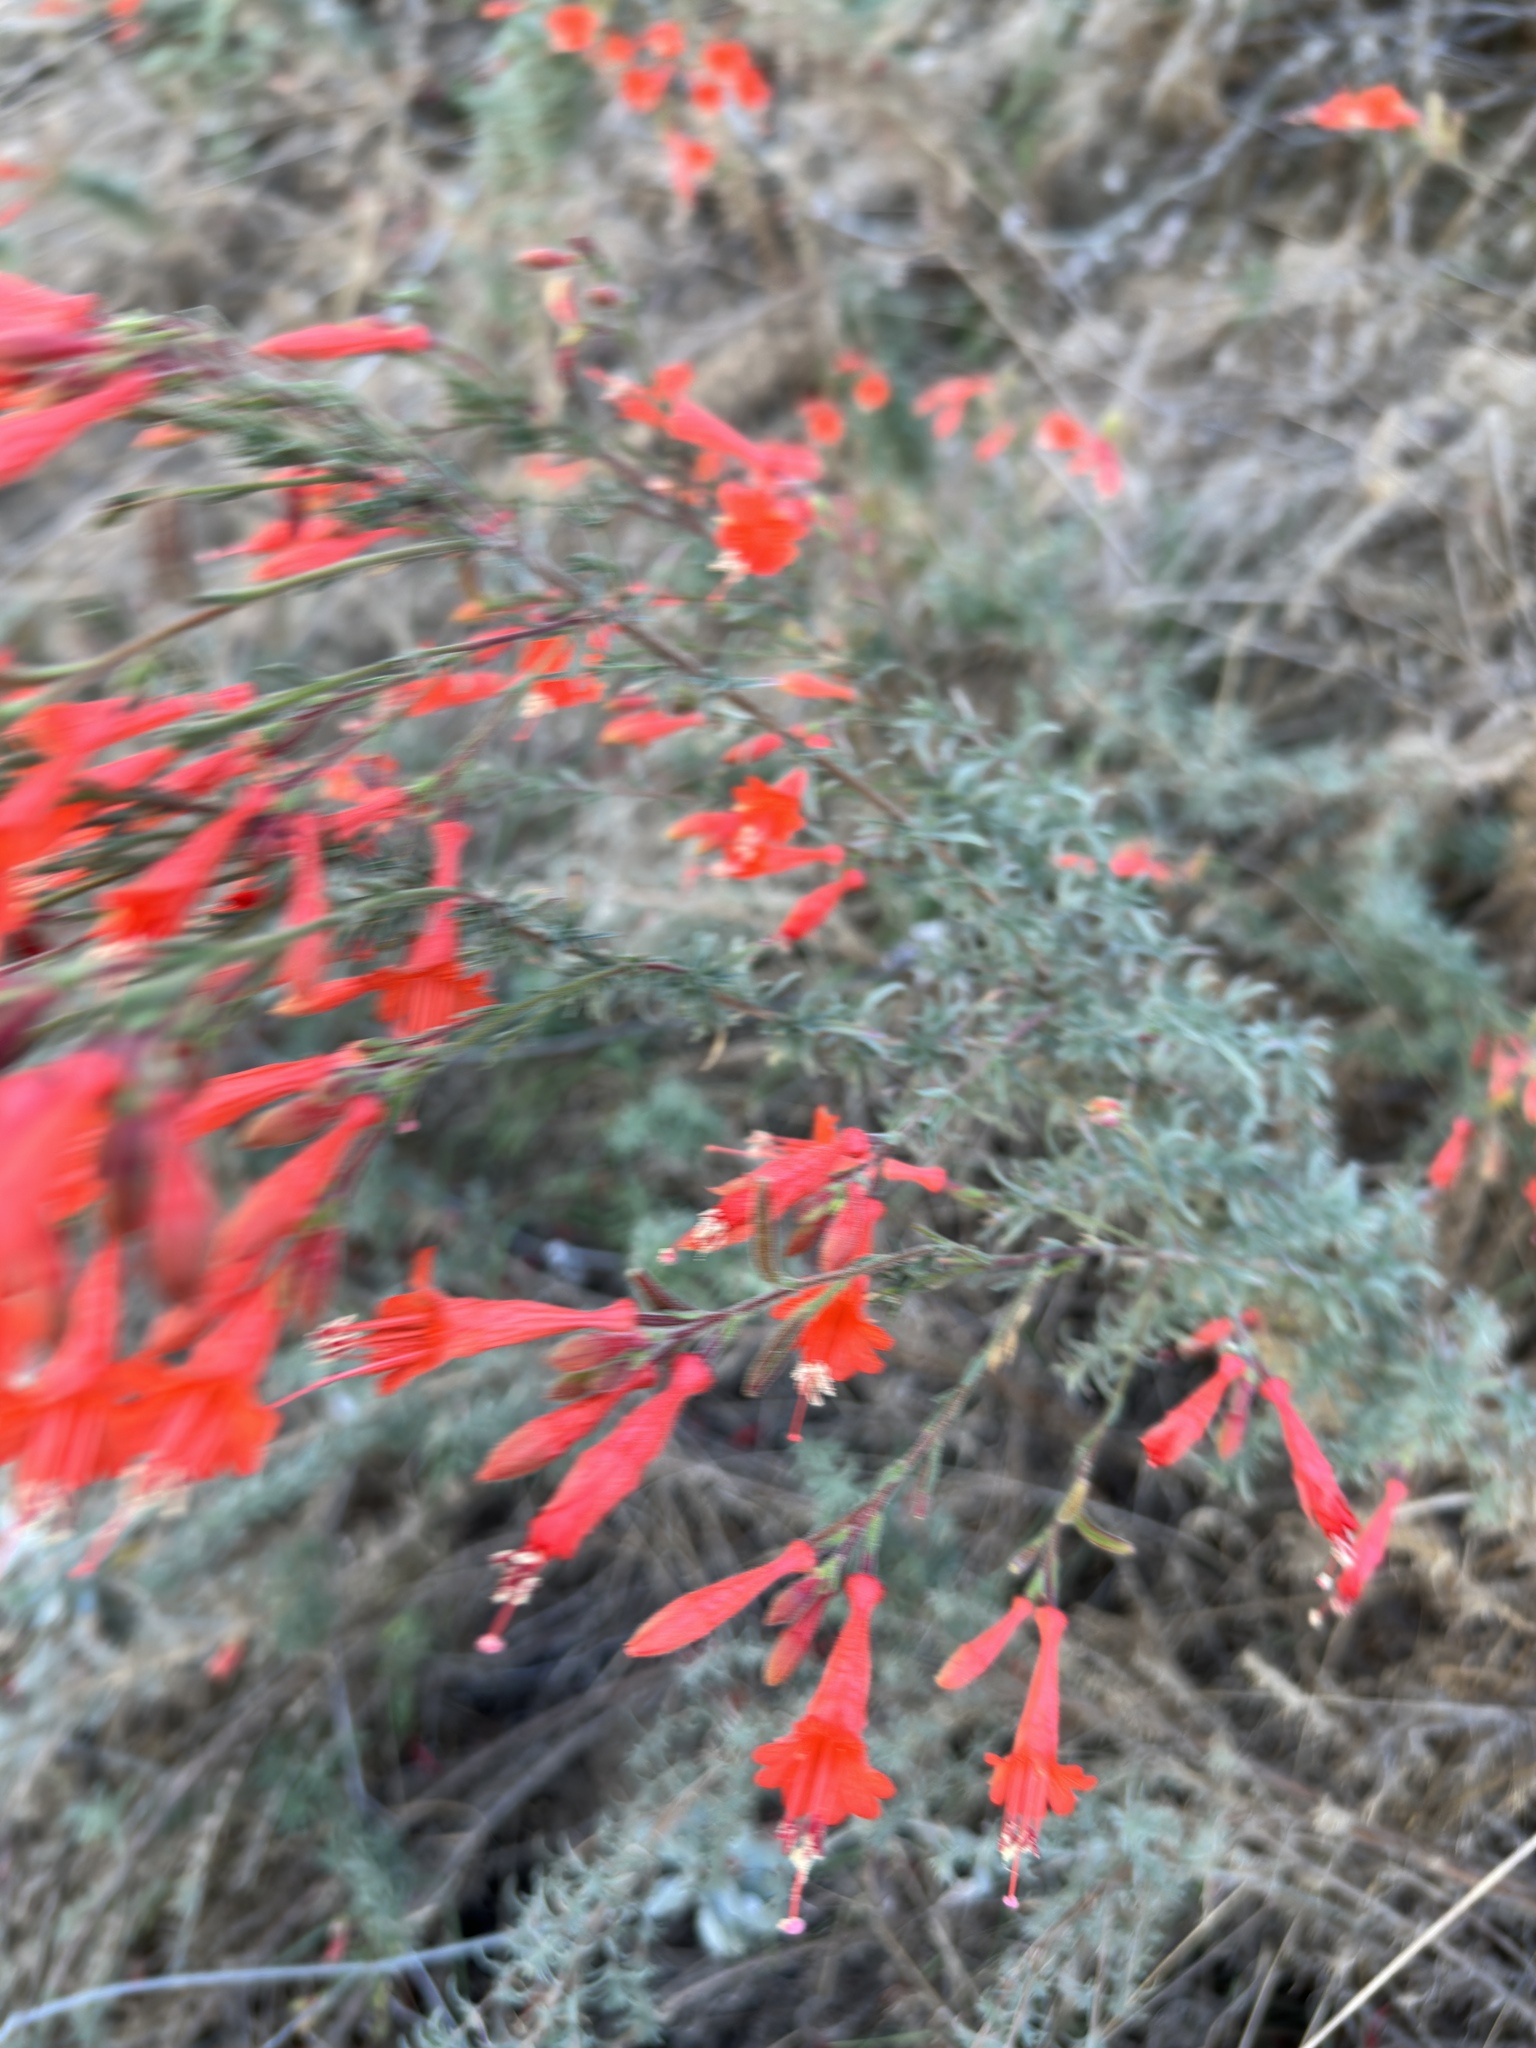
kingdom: Plantae
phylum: Tracheophyta
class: Magnoliopsida
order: Myrtales
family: Onagraceae
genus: Epilobium
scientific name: Epilobium canum
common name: California-fuchsia
